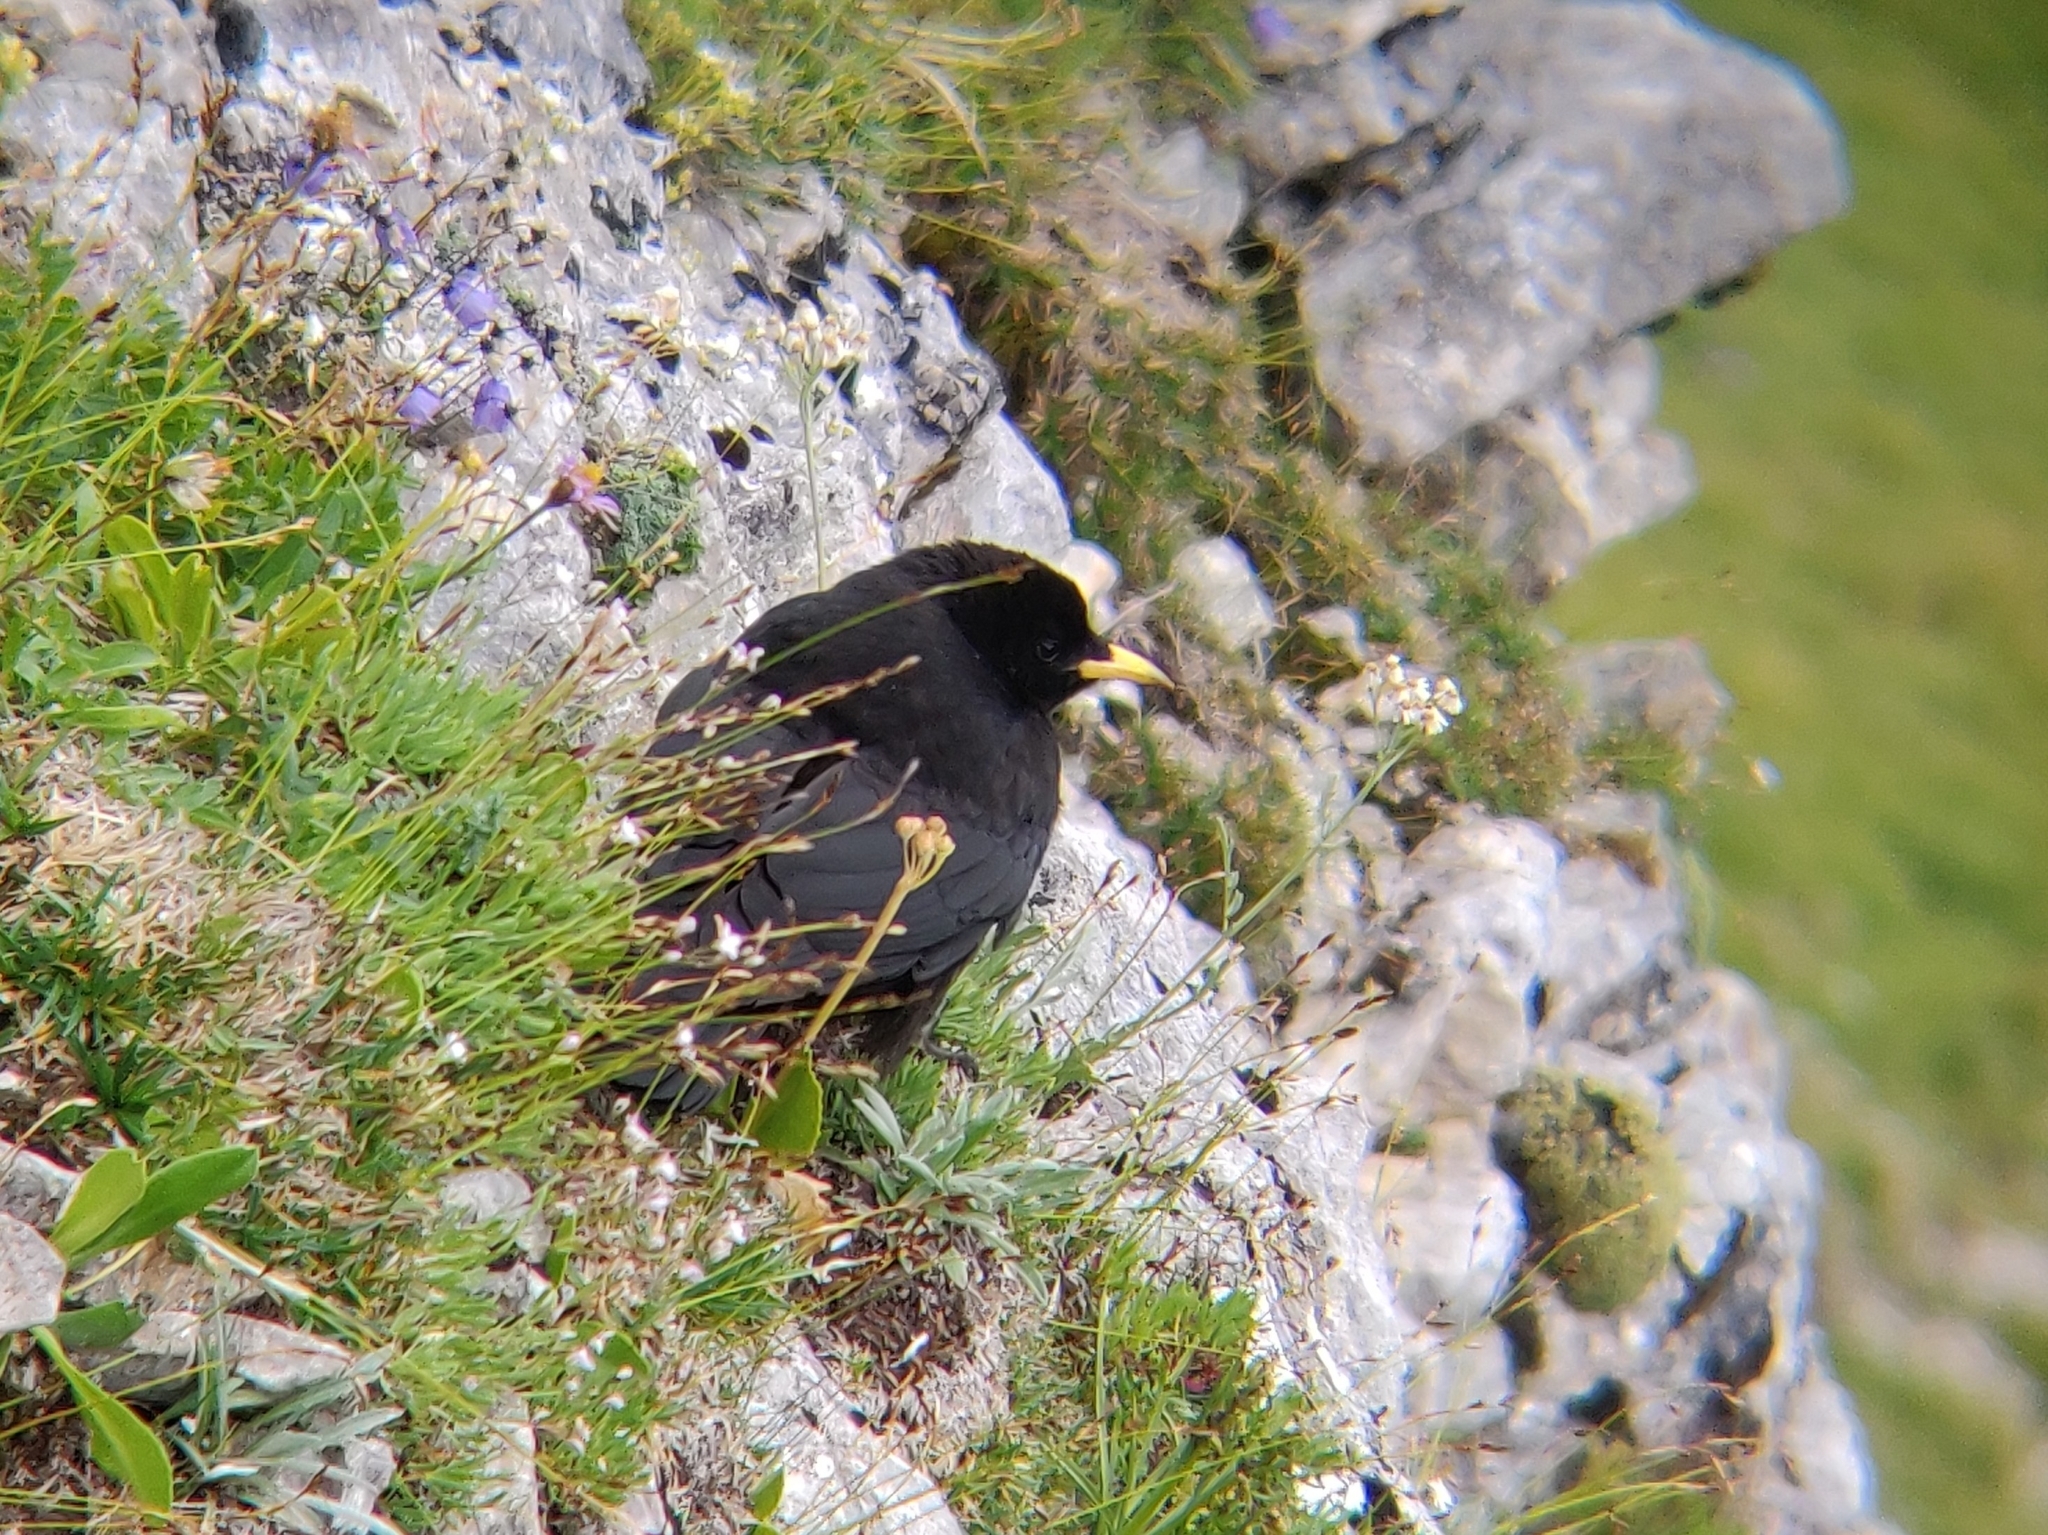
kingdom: Animalia
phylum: Chordata
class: Aves
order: Passeriformes
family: Corvidae
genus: Pyrrhocorax
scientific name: Pyrrhocorax graculus
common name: Alpine chough
